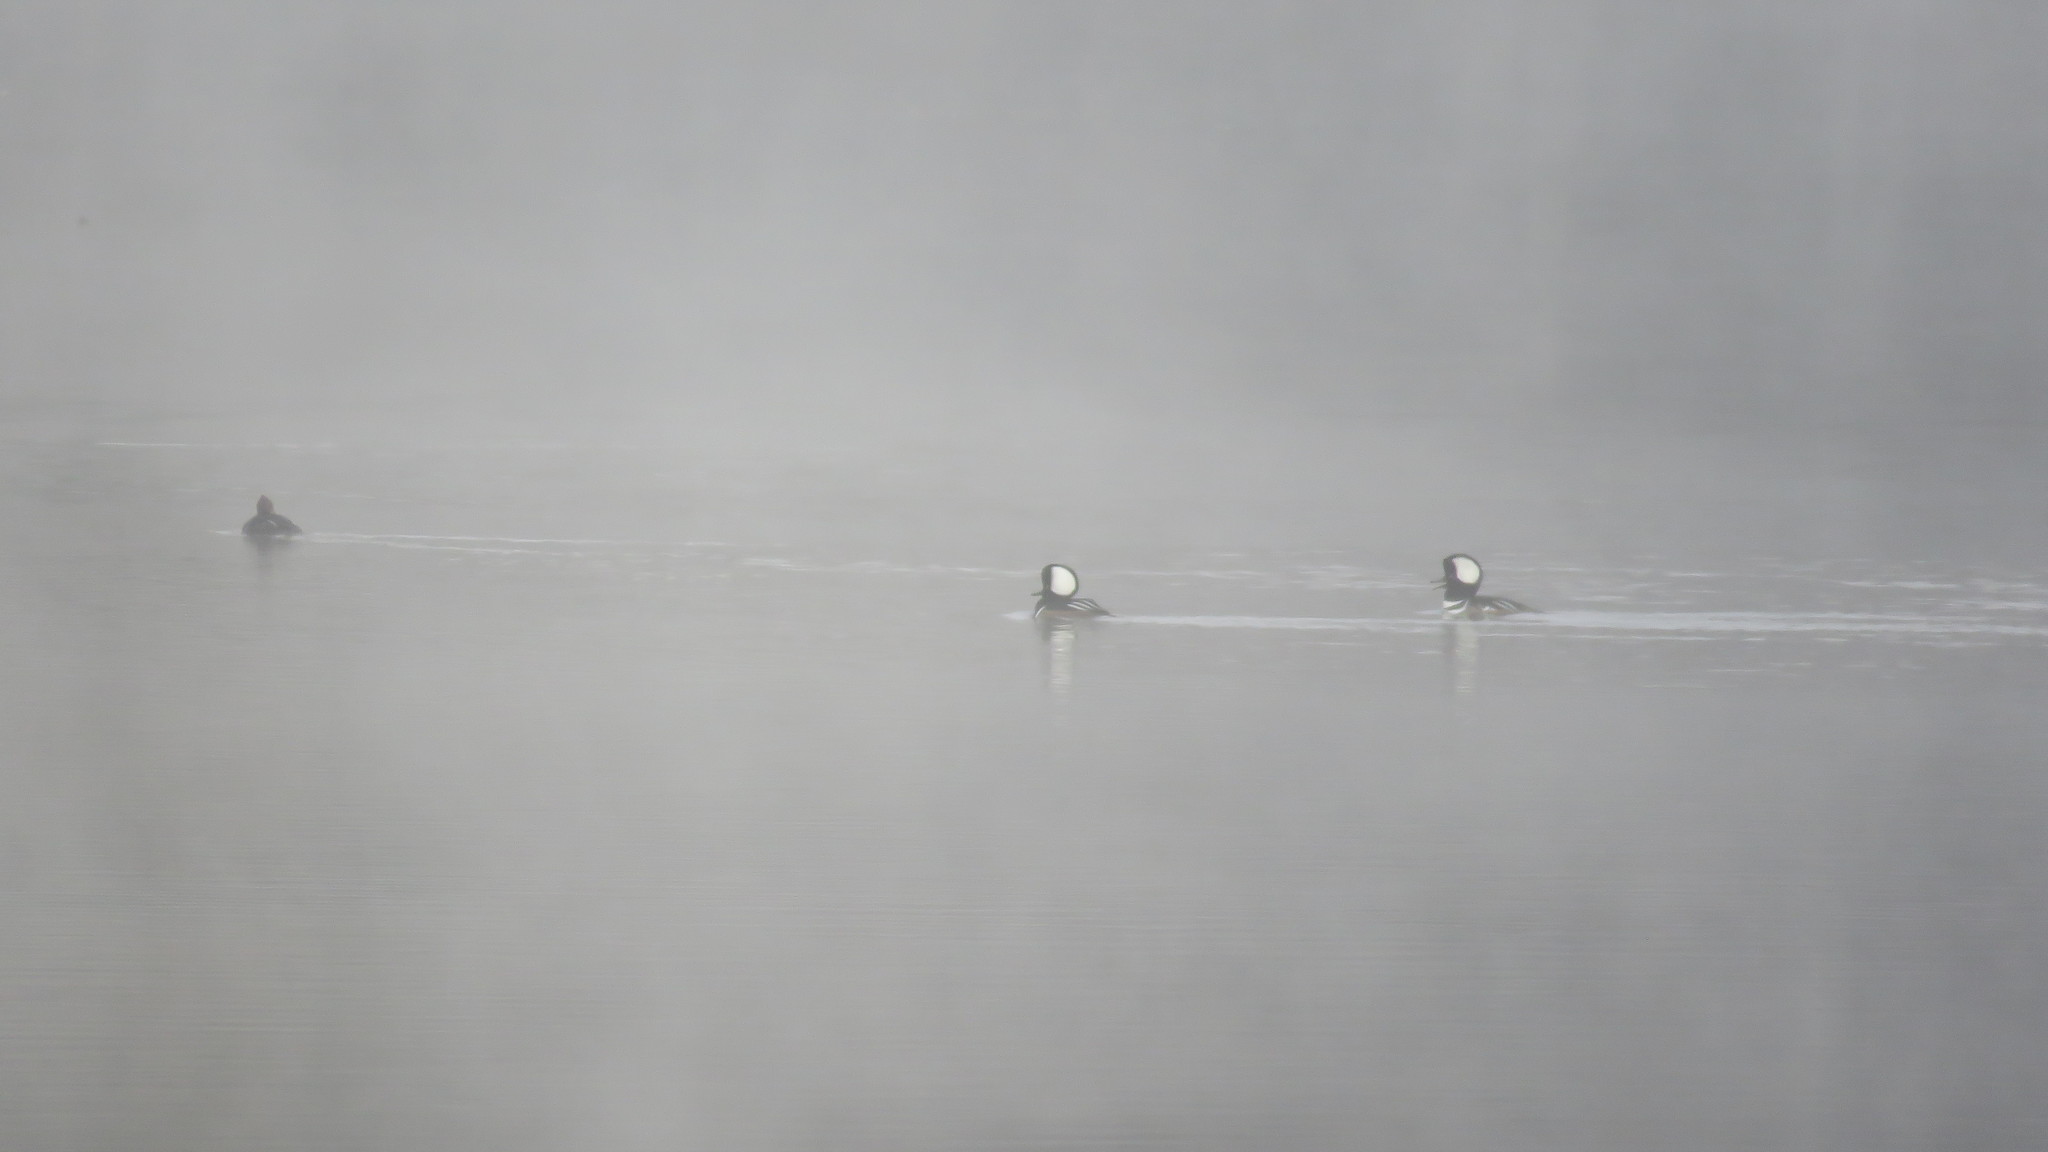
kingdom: Animalia
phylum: Chordata
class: Aves
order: Anseriformes
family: Anatidae
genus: Lophodytes
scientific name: Lophodytes cucullatus
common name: Hooded merganser
